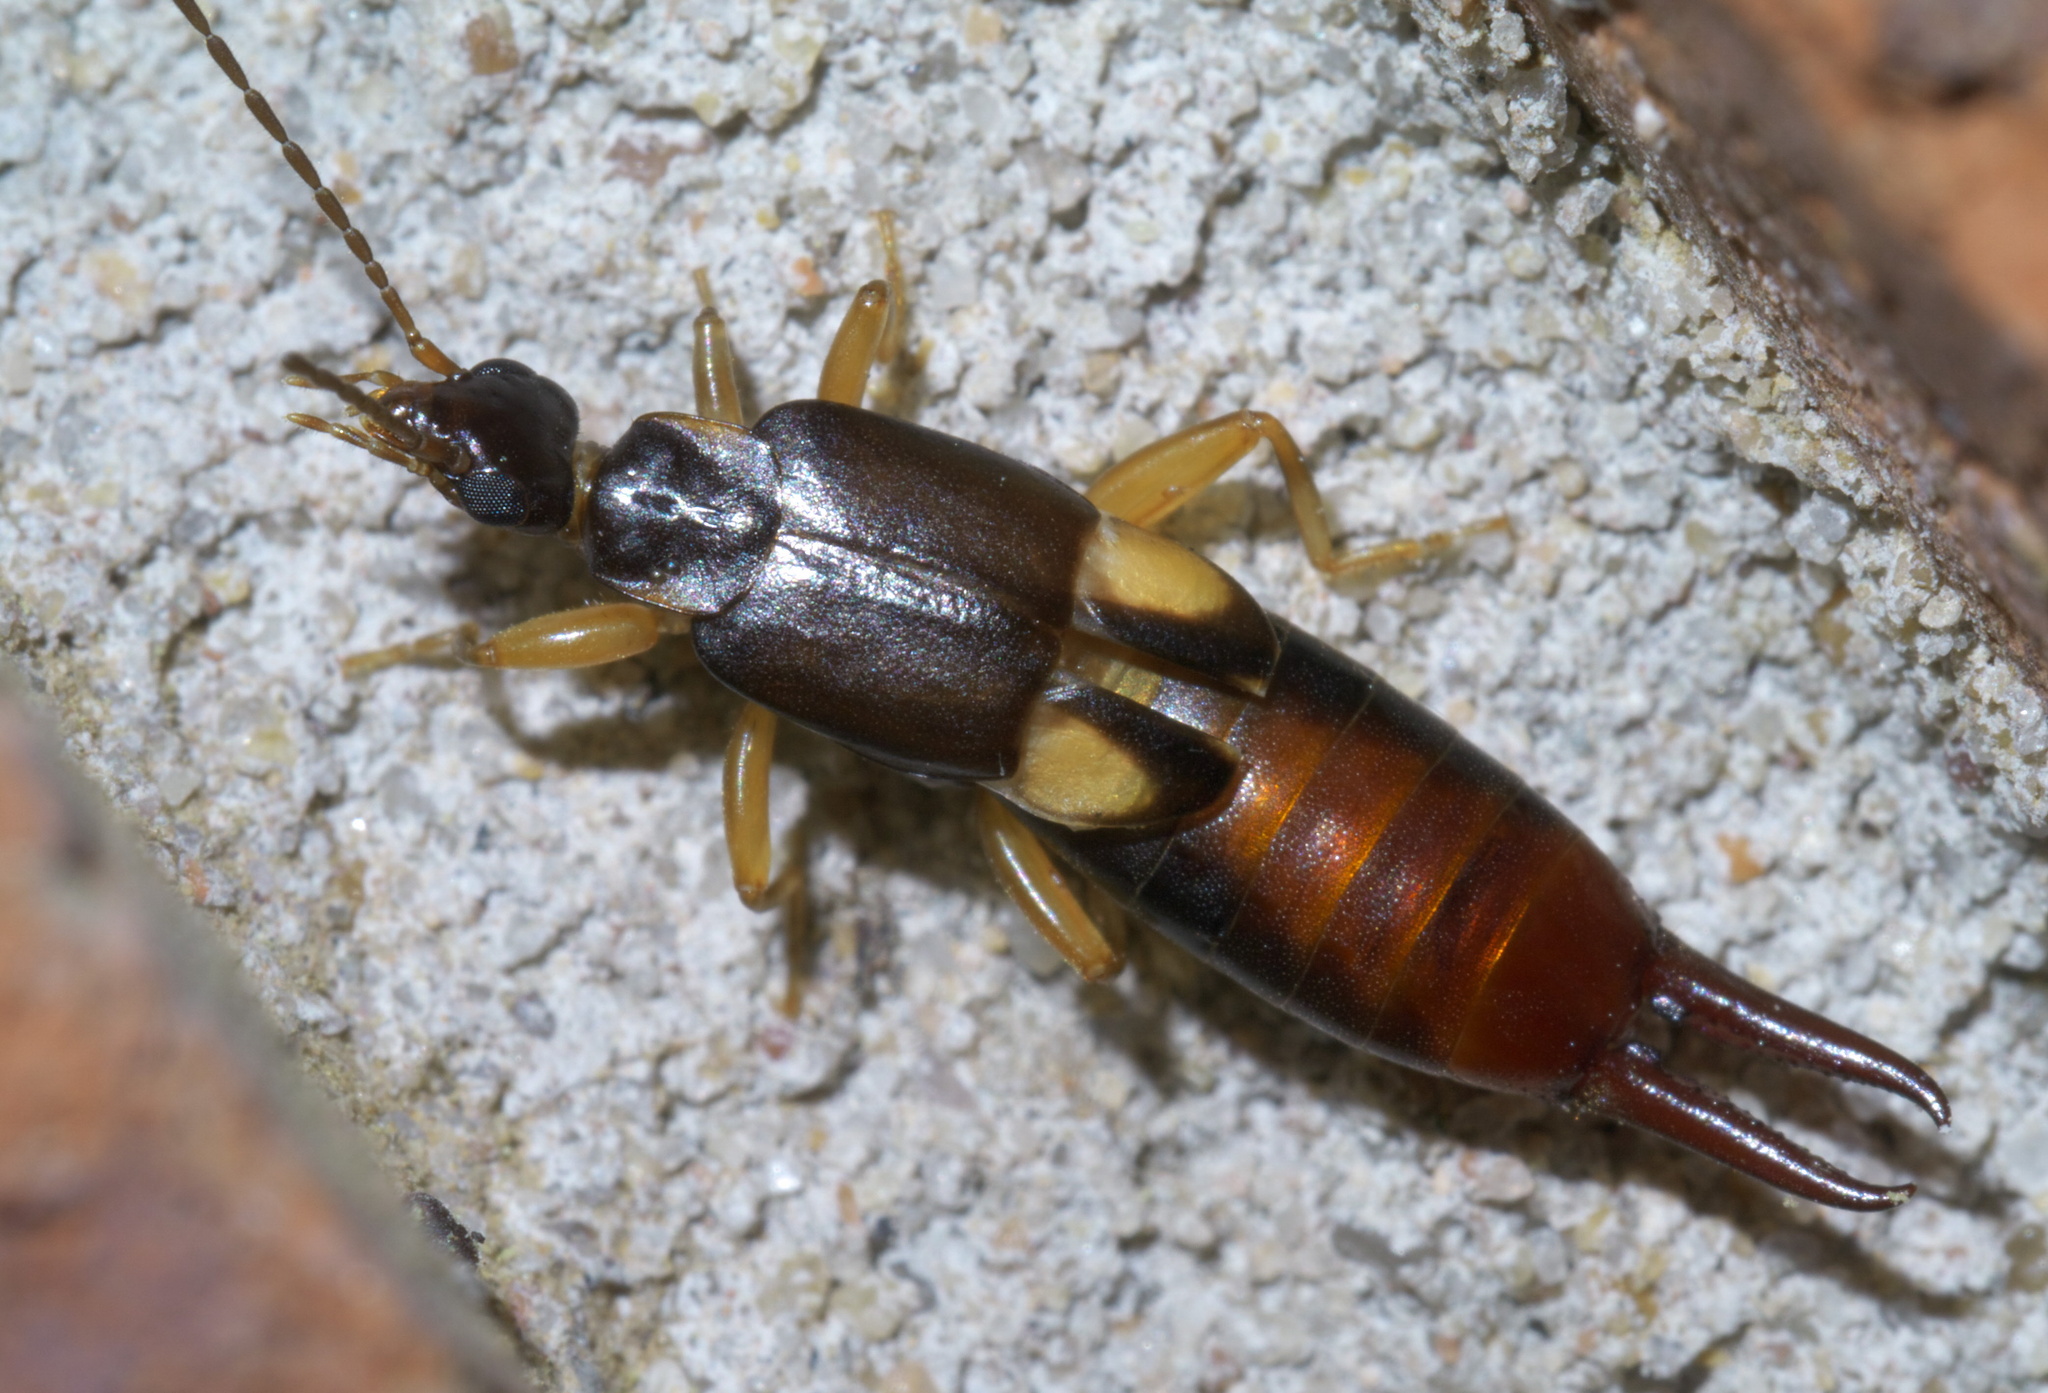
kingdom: Animalia
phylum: Arthropoda
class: Insecta
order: Dermaptera
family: Spongiphoridae
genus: Vostox
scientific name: Vostox brunneipennis
